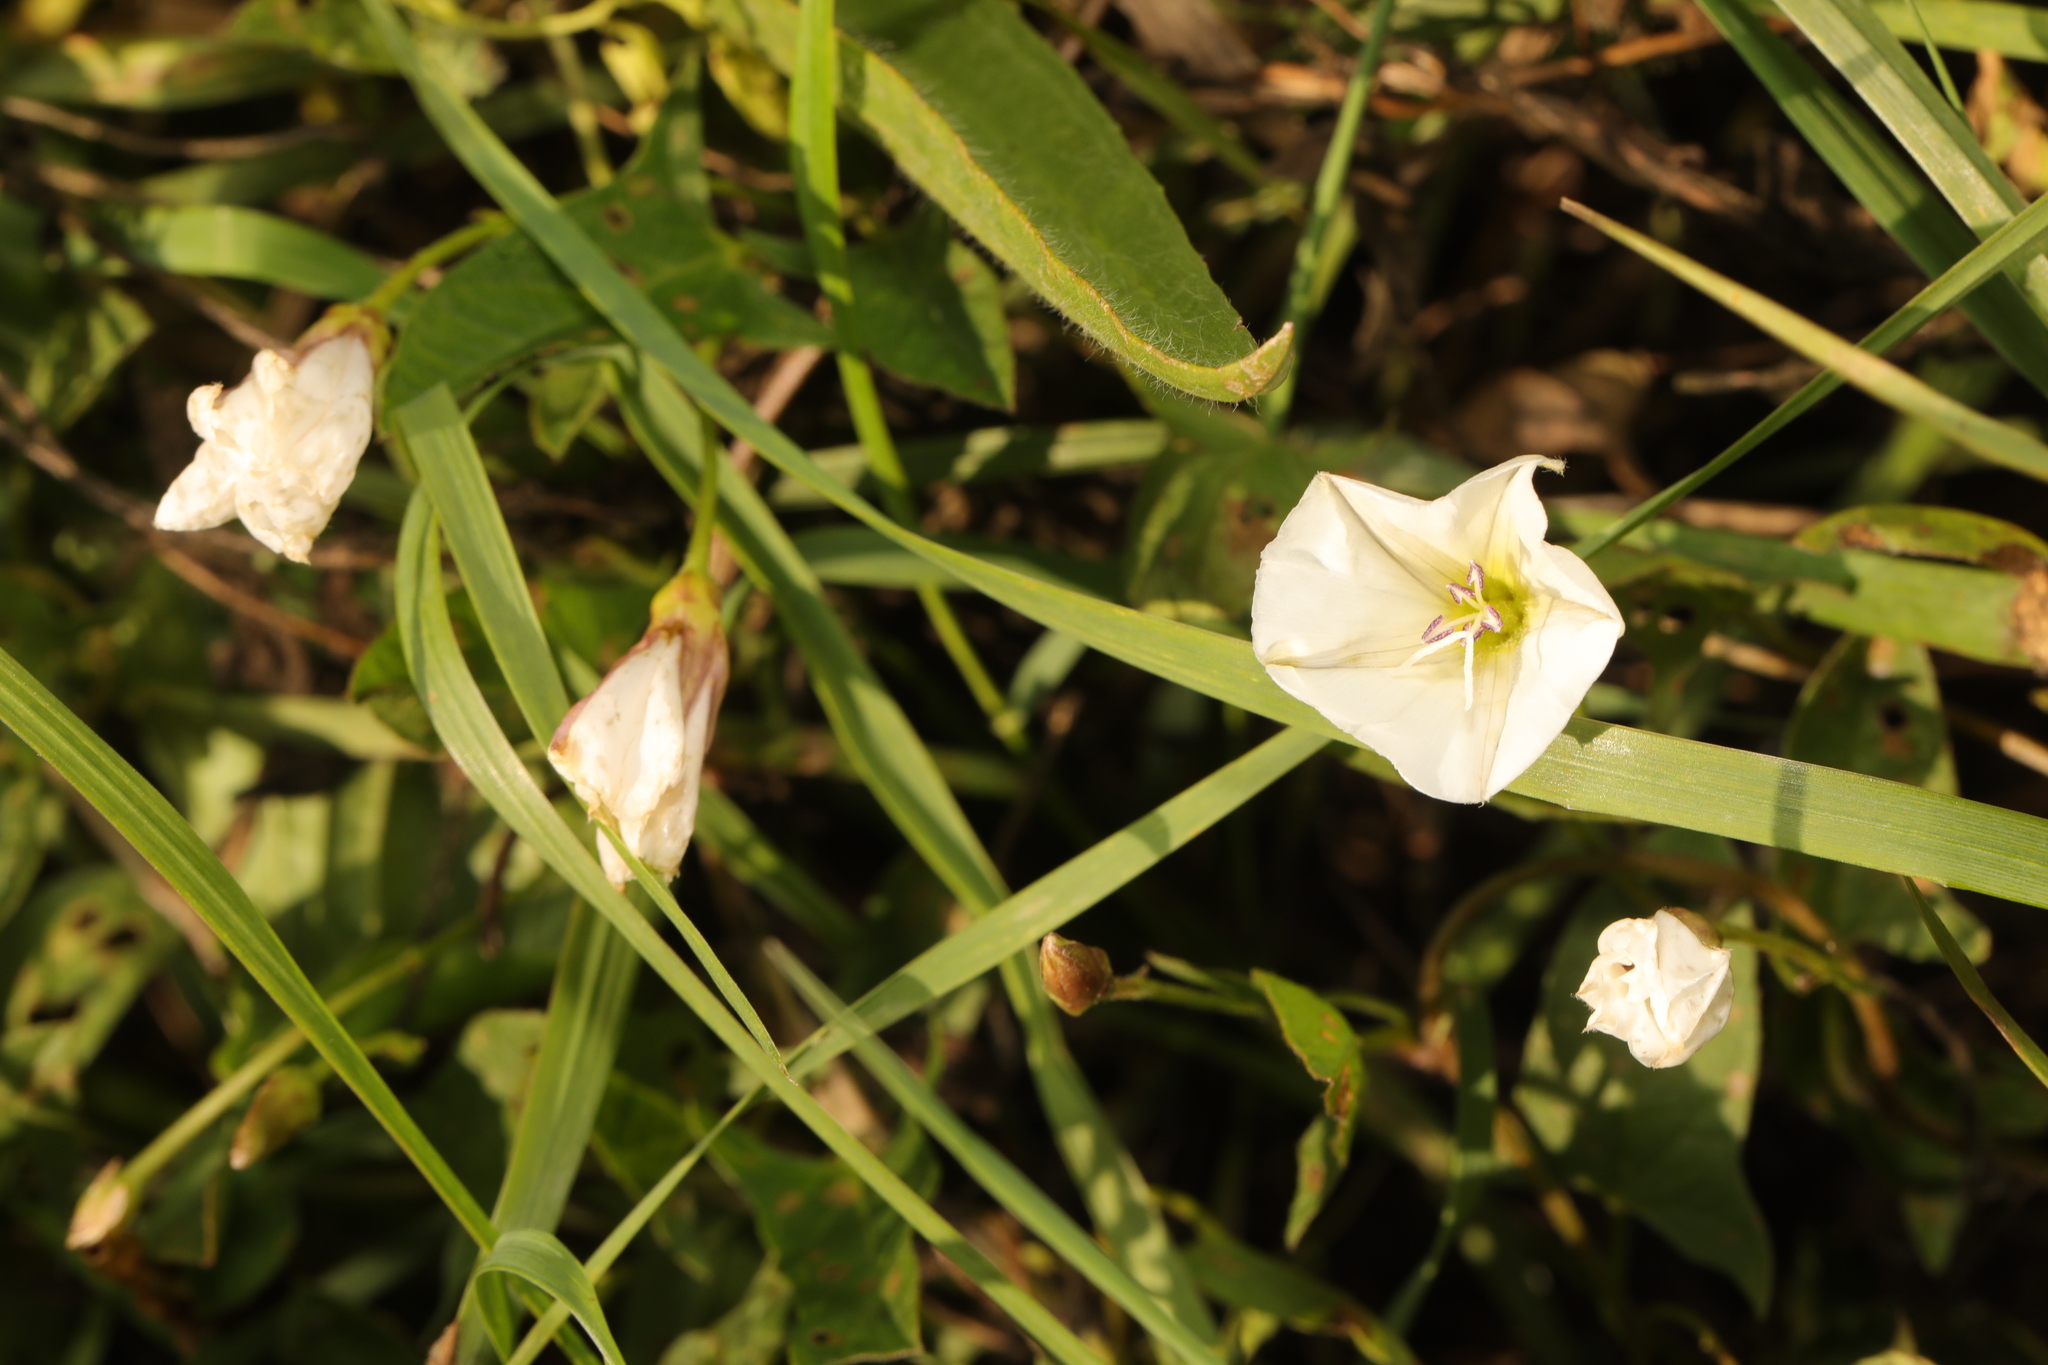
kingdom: Plantae
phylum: Tracheophyta
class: Magnoliopsida
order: Solanales
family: Convolvulaceae
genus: Convolvulus
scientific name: Convolvulus arvensis
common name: Field bindweed
